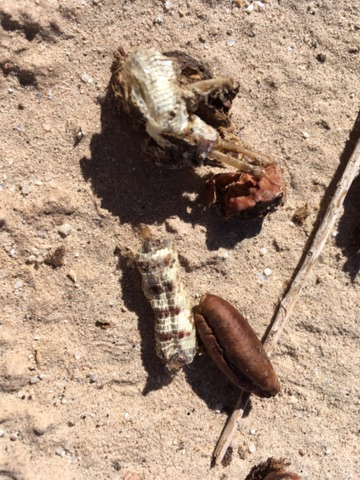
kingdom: Animalia
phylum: Chordata
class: Squamata
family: Iguanidae
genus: Dipsosaurus
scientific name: Dipsosaurus dorsalis
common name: Desert iguana
